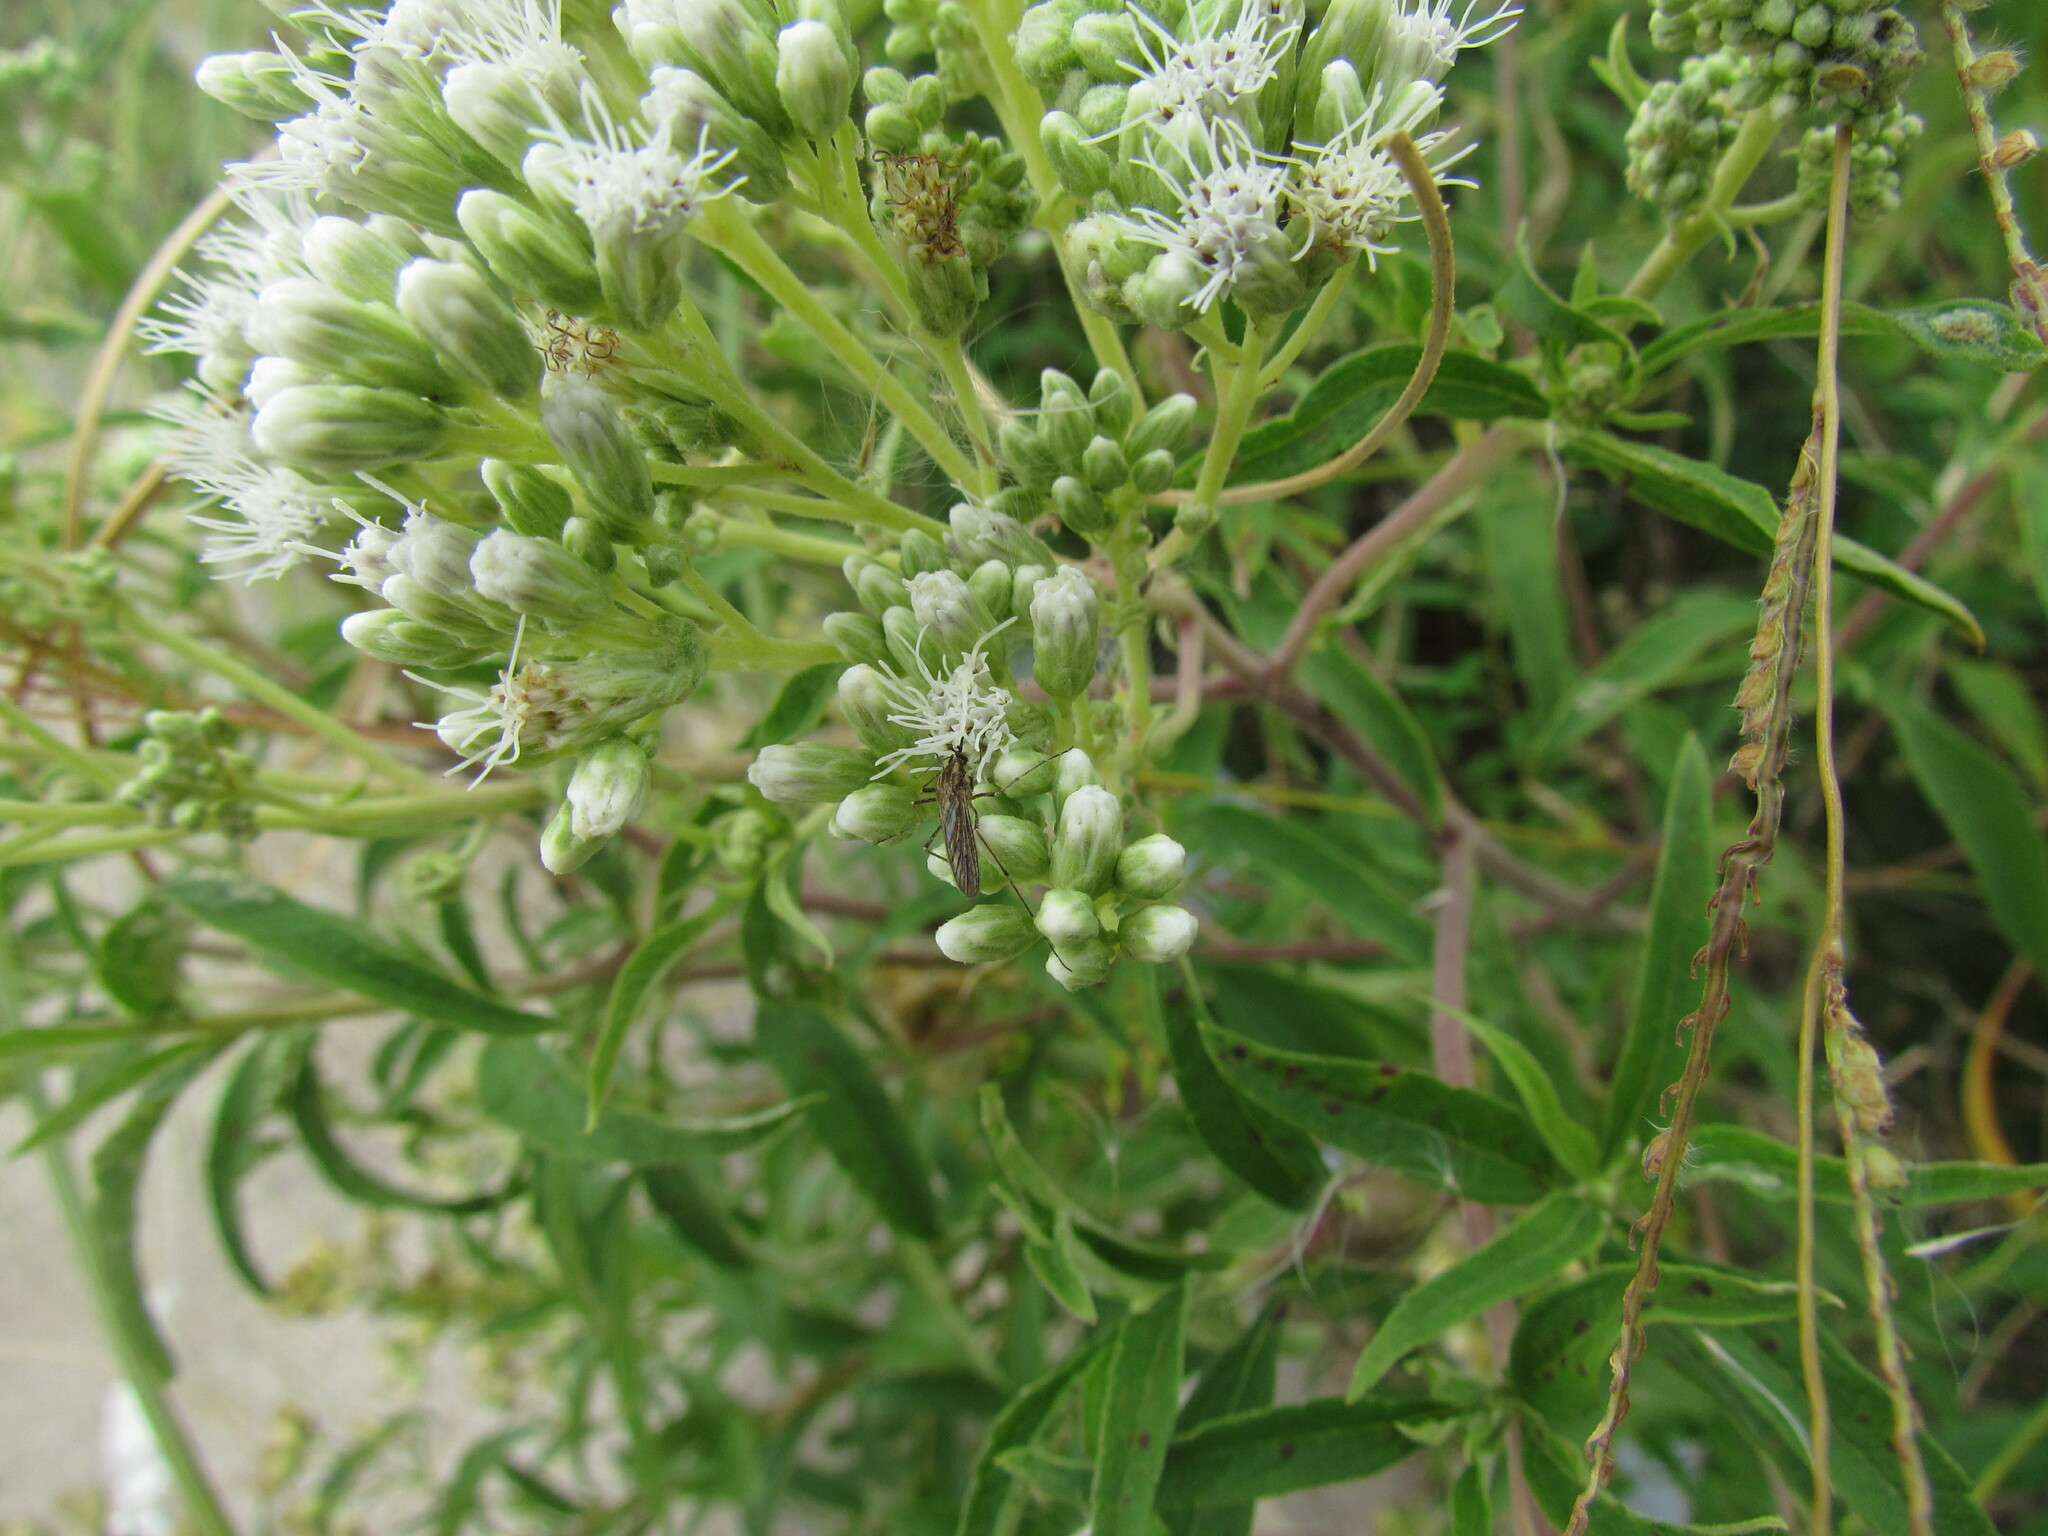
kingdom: Plantae
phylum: Tracheophyta
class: Magnoliopsida
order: Asterales
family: Asteraceae
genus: Austroeupatorium
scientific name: Austroeupatorium inulifolium
